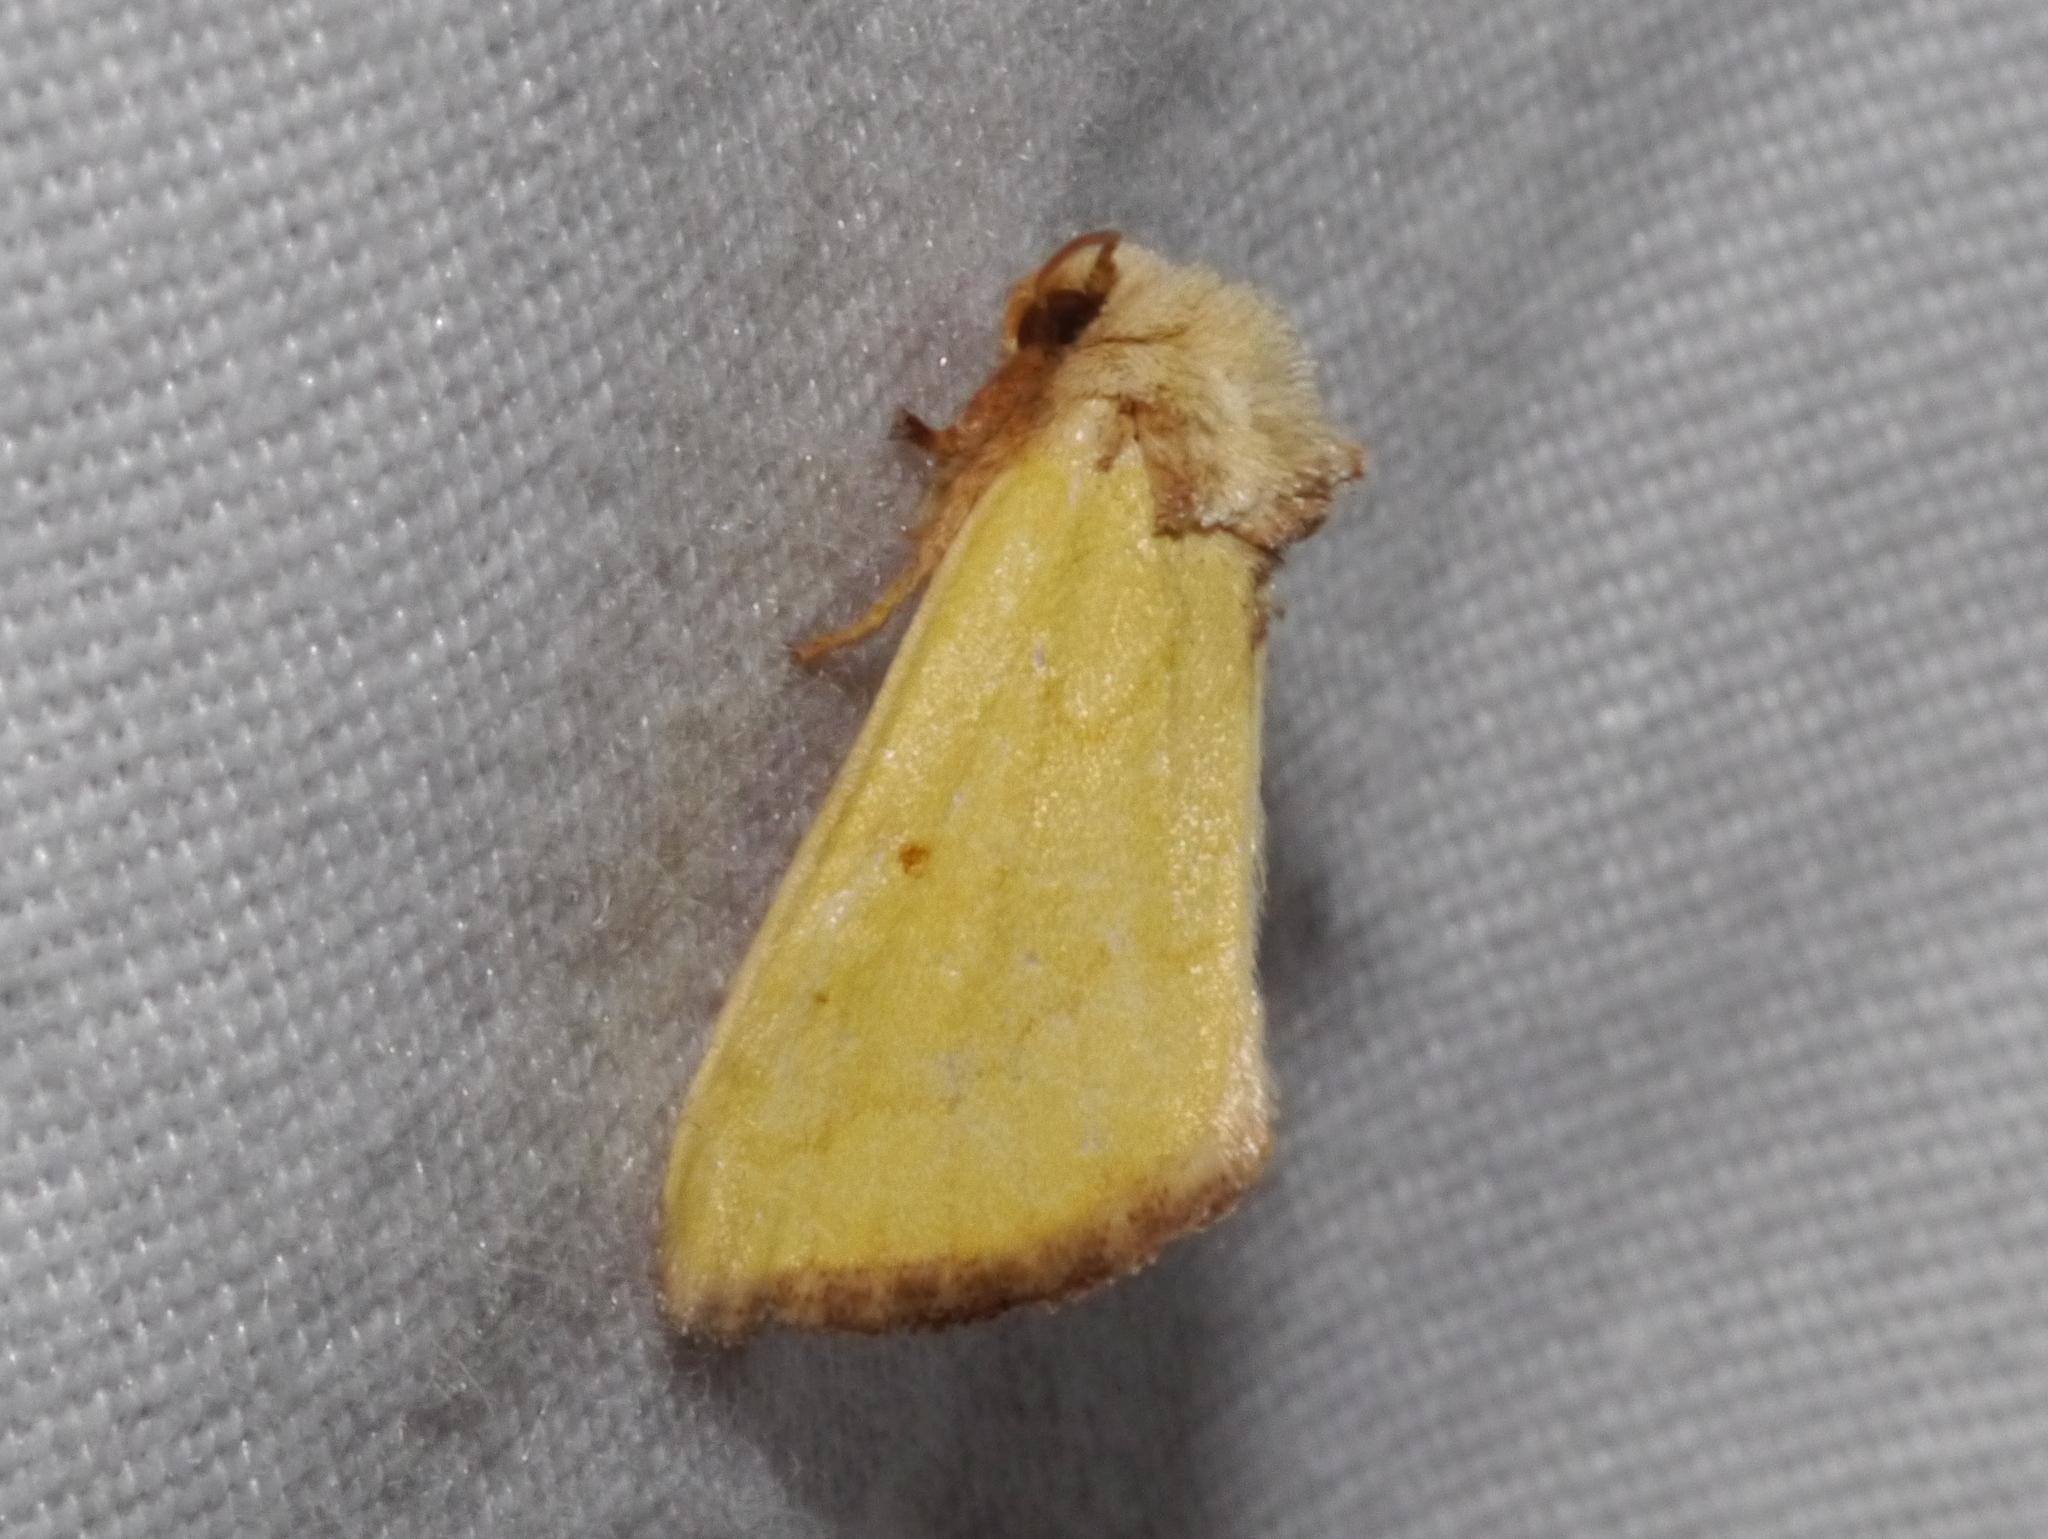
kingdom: Animalia
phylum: Arthropoda
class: Insecta
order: Lepidoptera
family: Noctuidae
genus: Nocloa
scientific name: Nocloa aliaga
